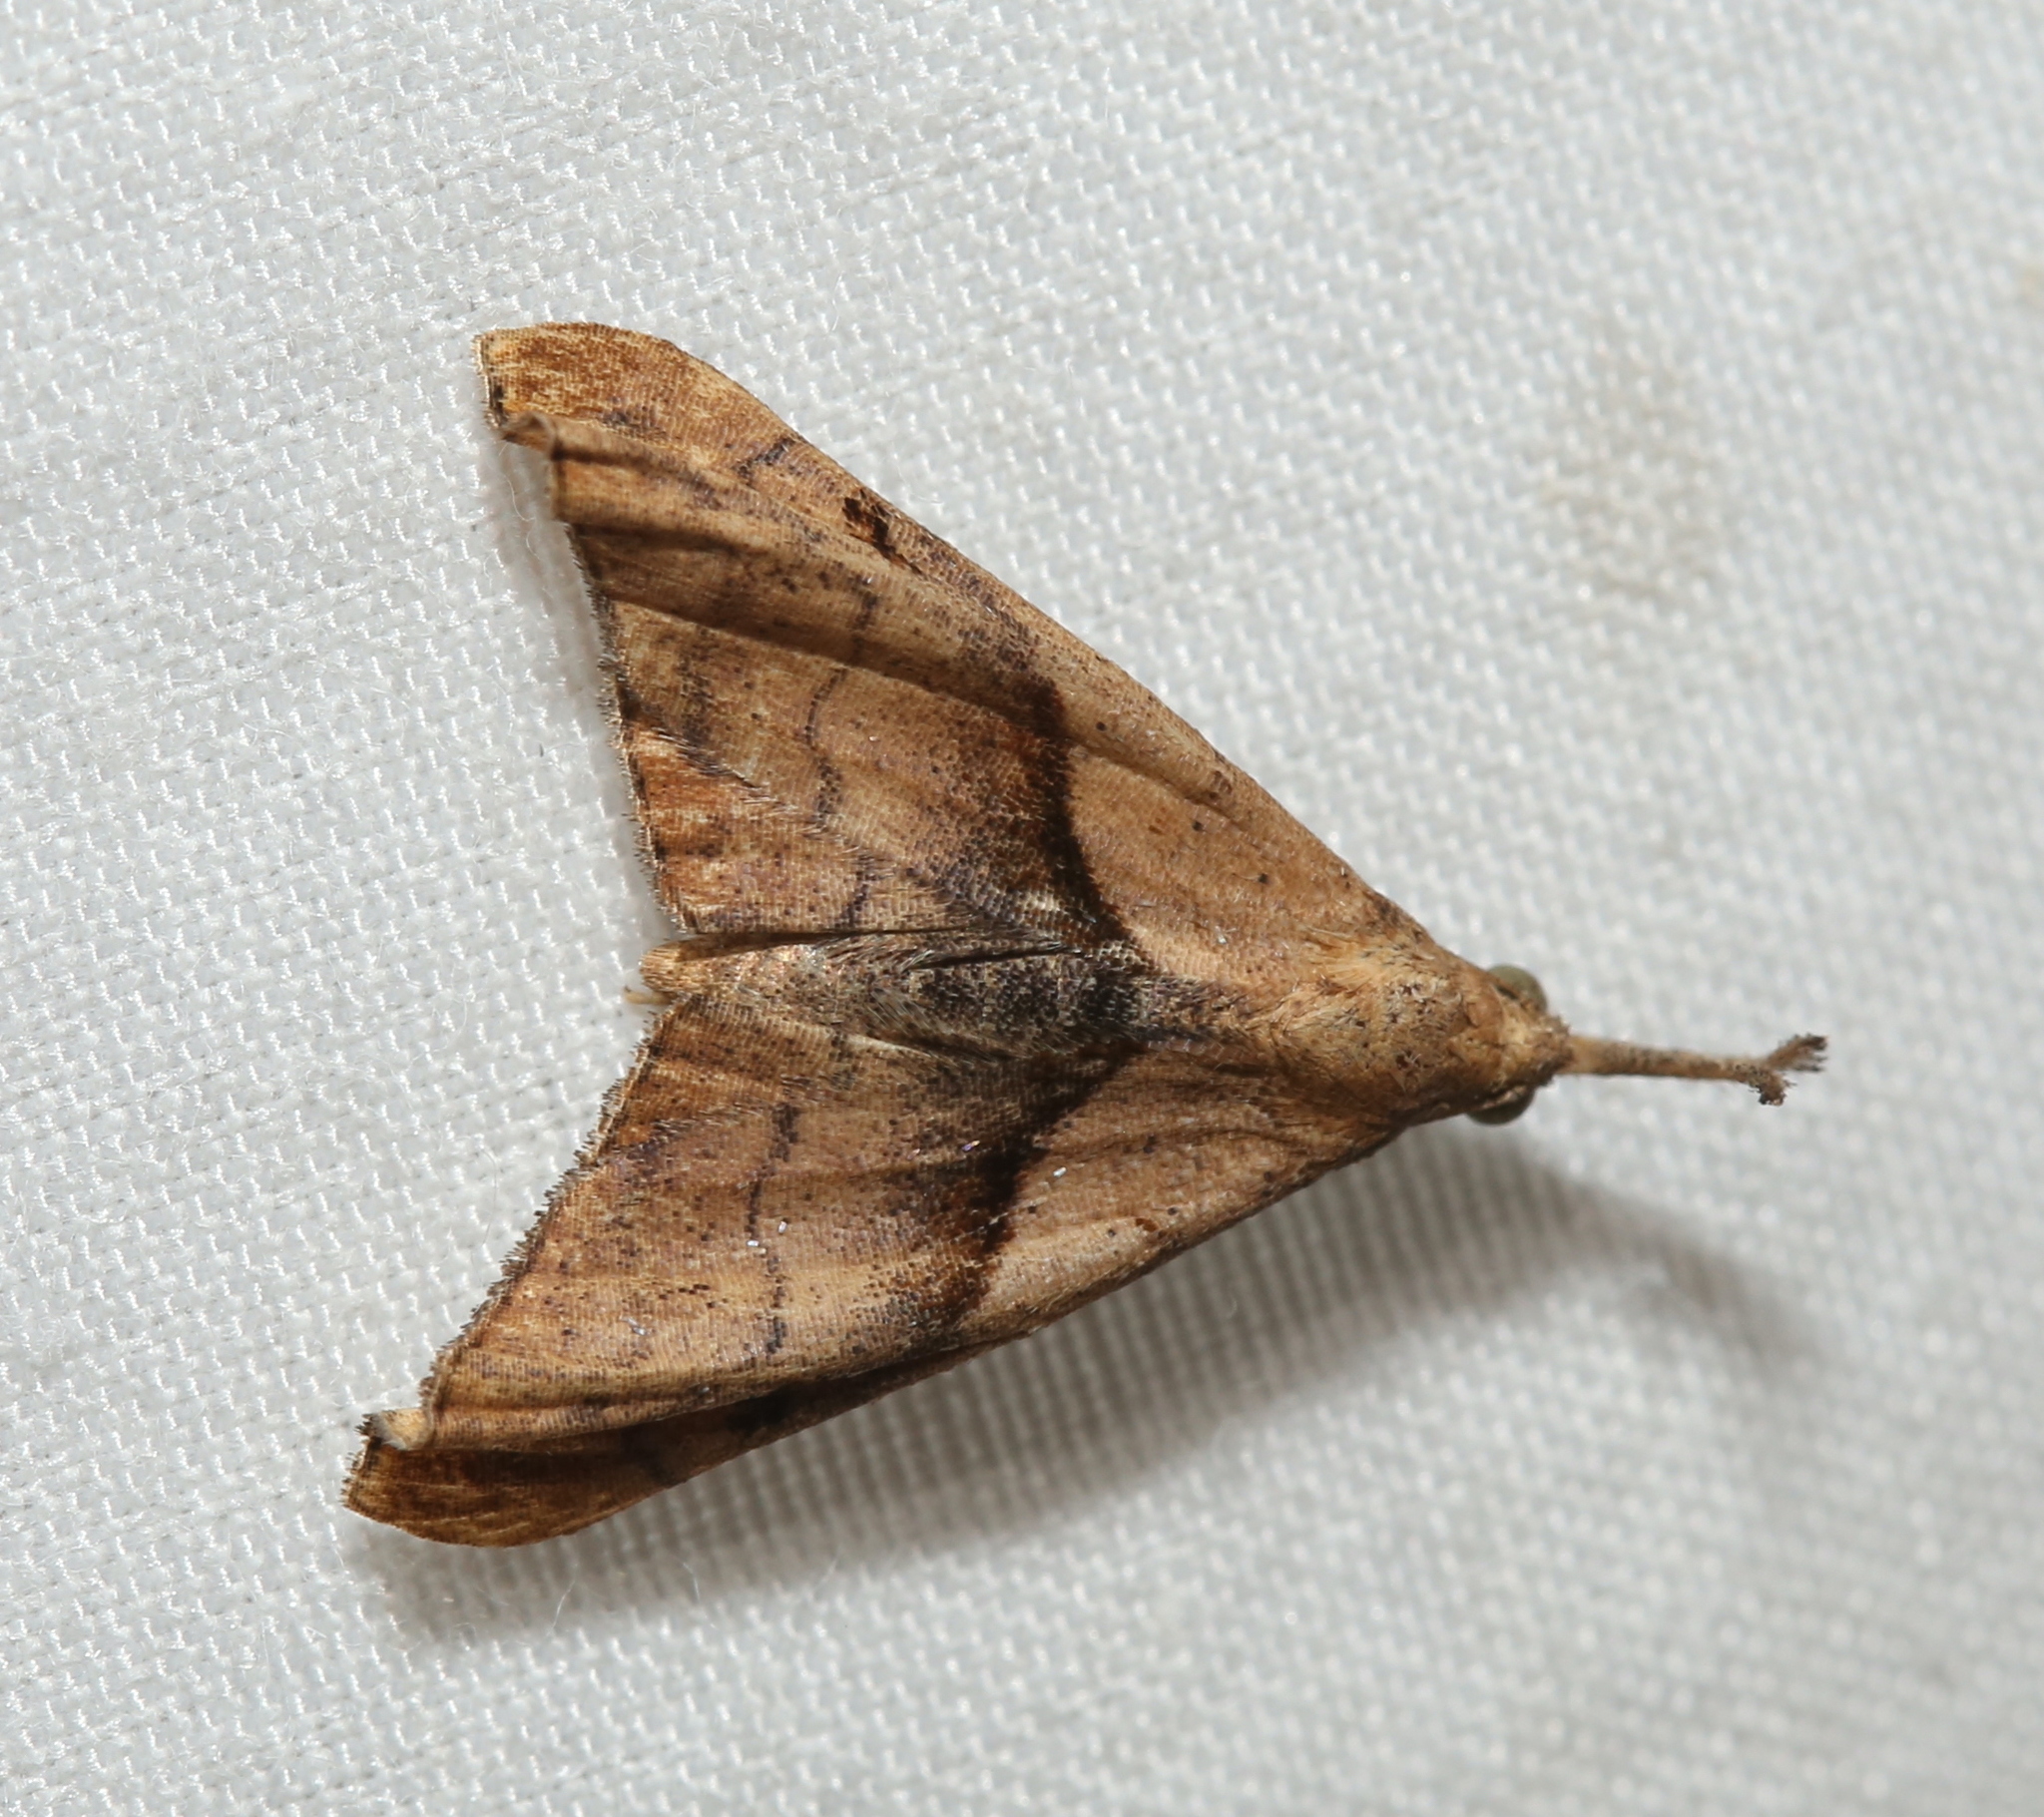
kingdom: Animalia
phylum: Arthropoda
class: Insecta
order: Lepidoptera
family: Erebidae
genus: Palthis
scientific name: Palthis angulalis
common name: Dark-spotted palthis moth
